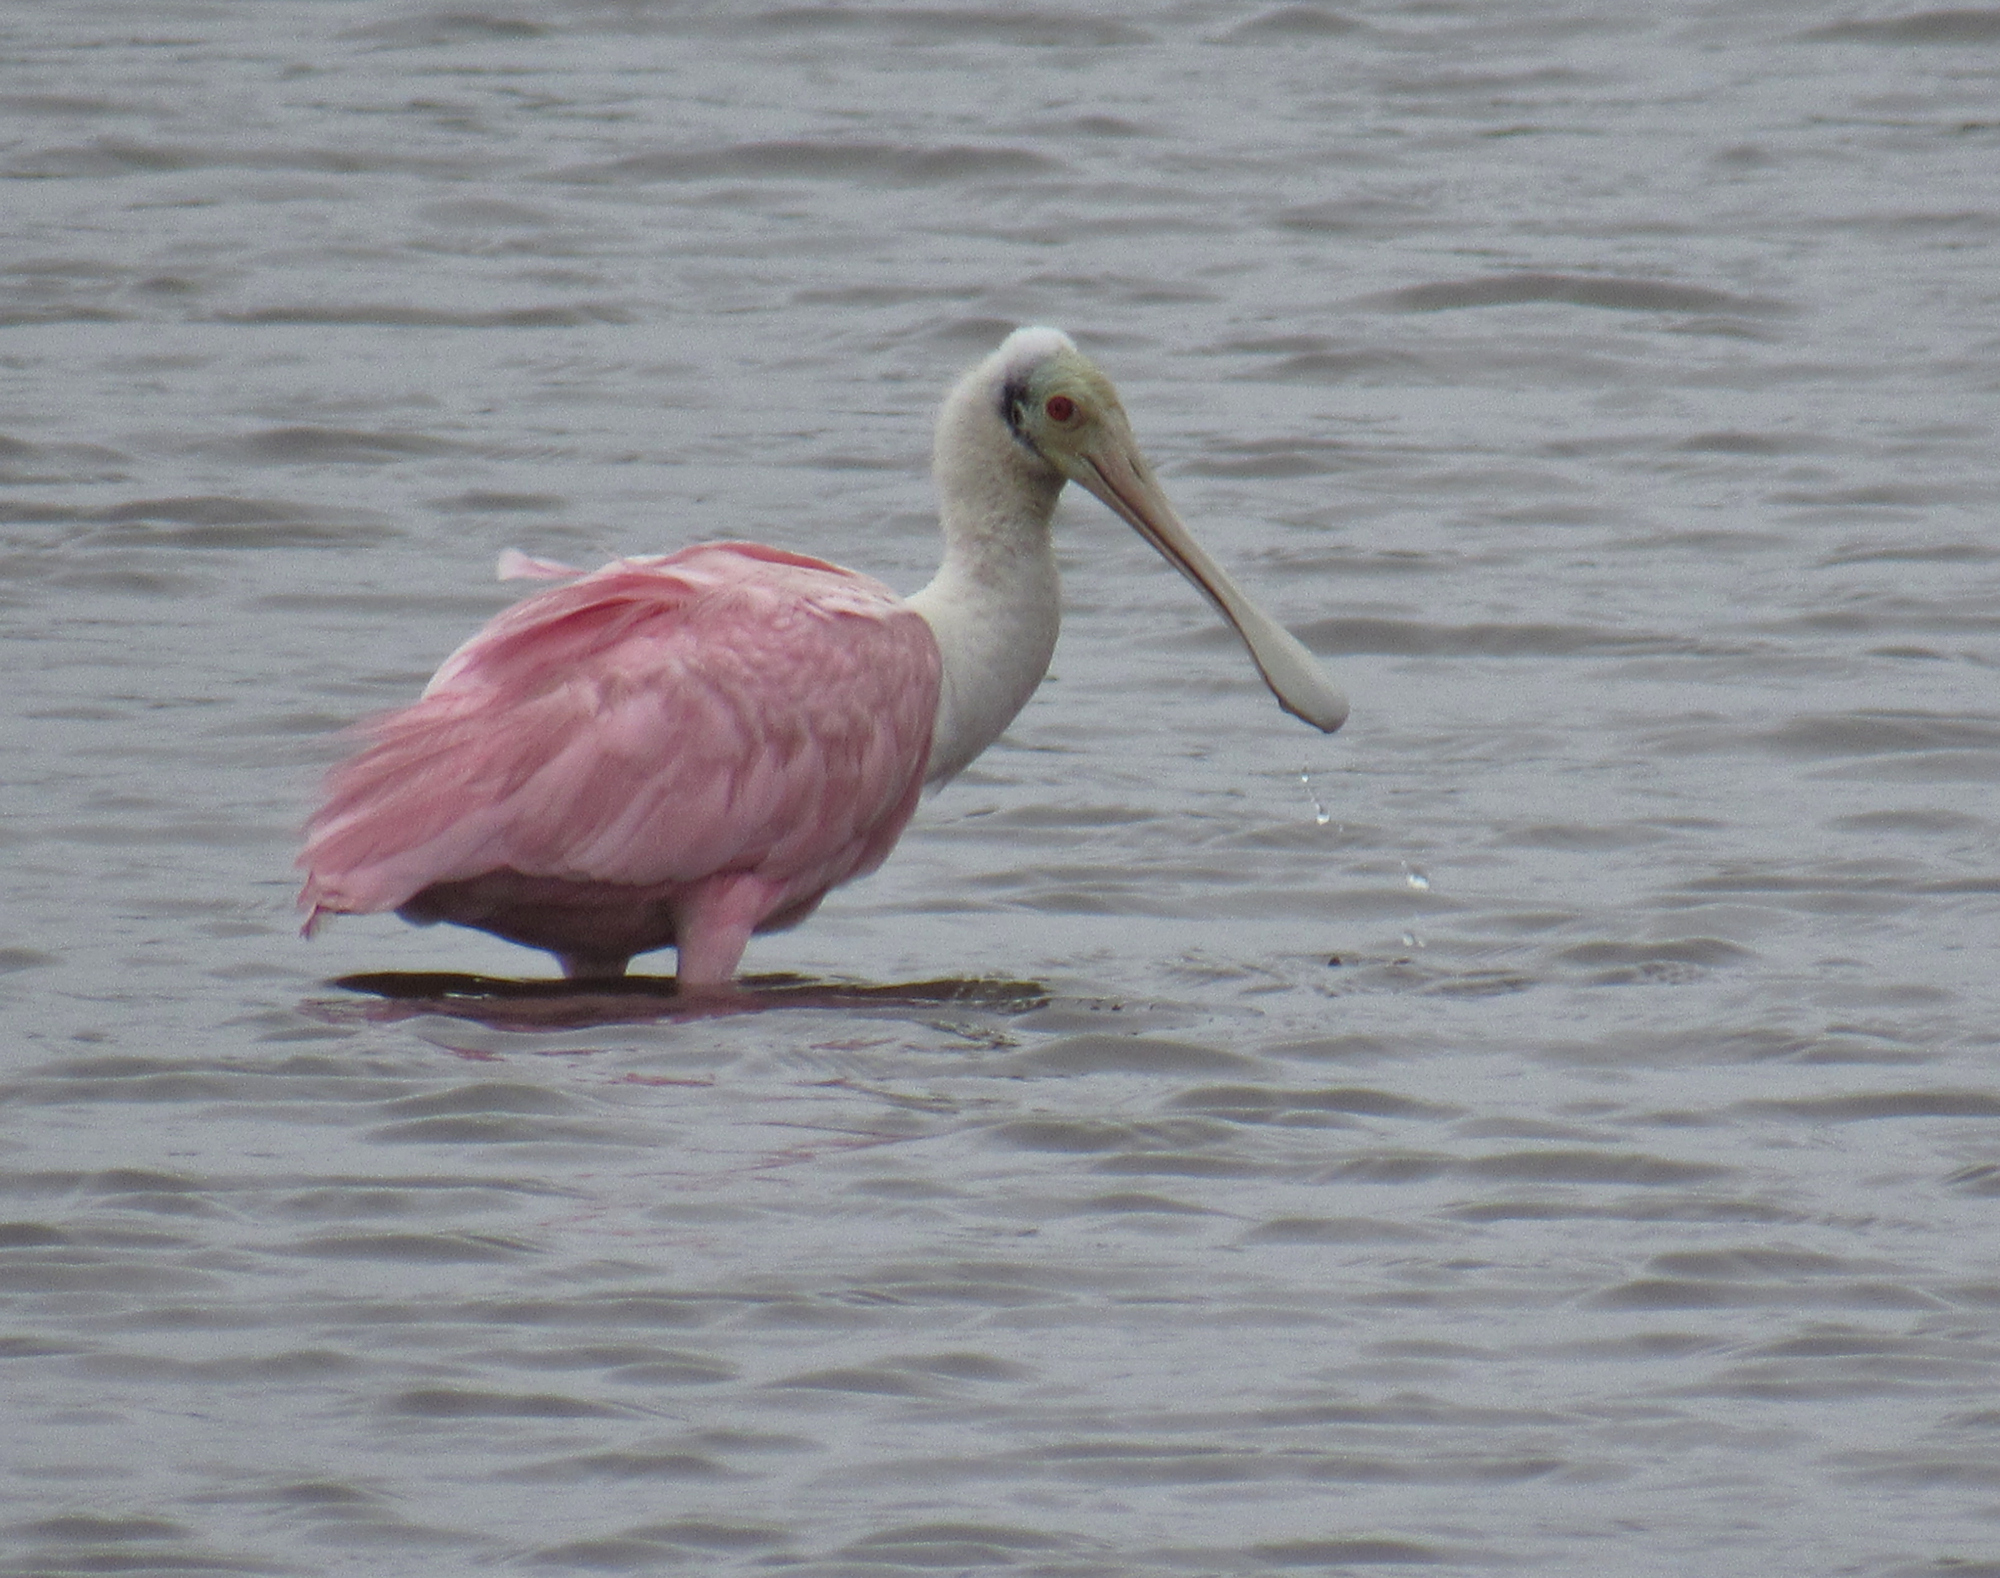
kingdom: Animalia
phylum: Chordata
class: Aves
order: Pelecaniformes
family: Threskiornithidae
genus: Platalea
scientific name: Platalea ajaja
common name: Roseate spoonbill
